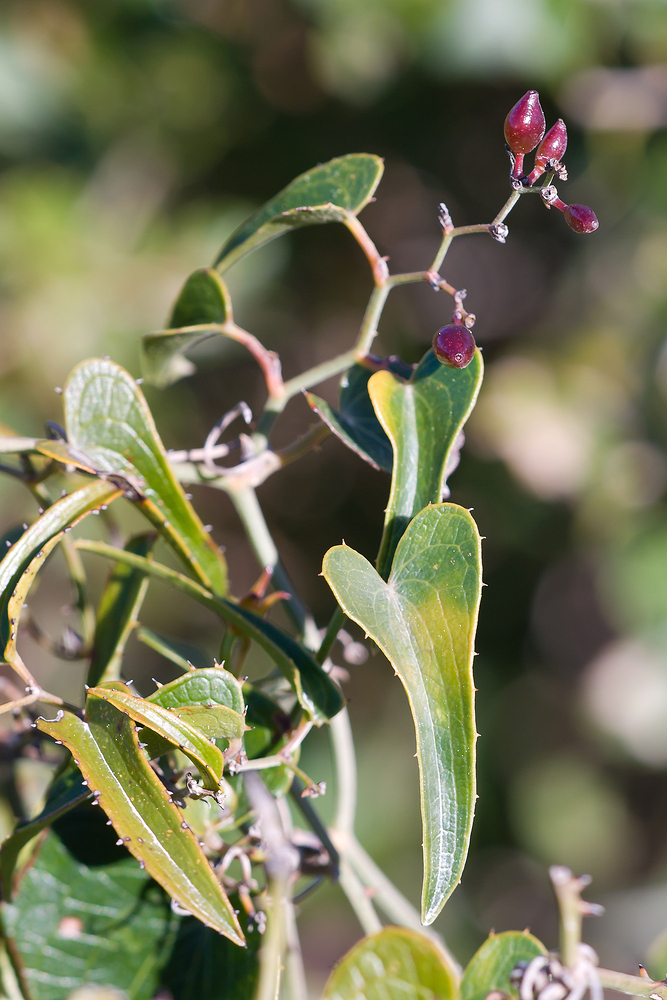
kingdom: Plantae
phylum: Tracheophyta
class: Liliopsida
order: Liliales
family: Smilacaceae
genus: Smilax
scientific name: Smilax aspera
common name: Common smilax
